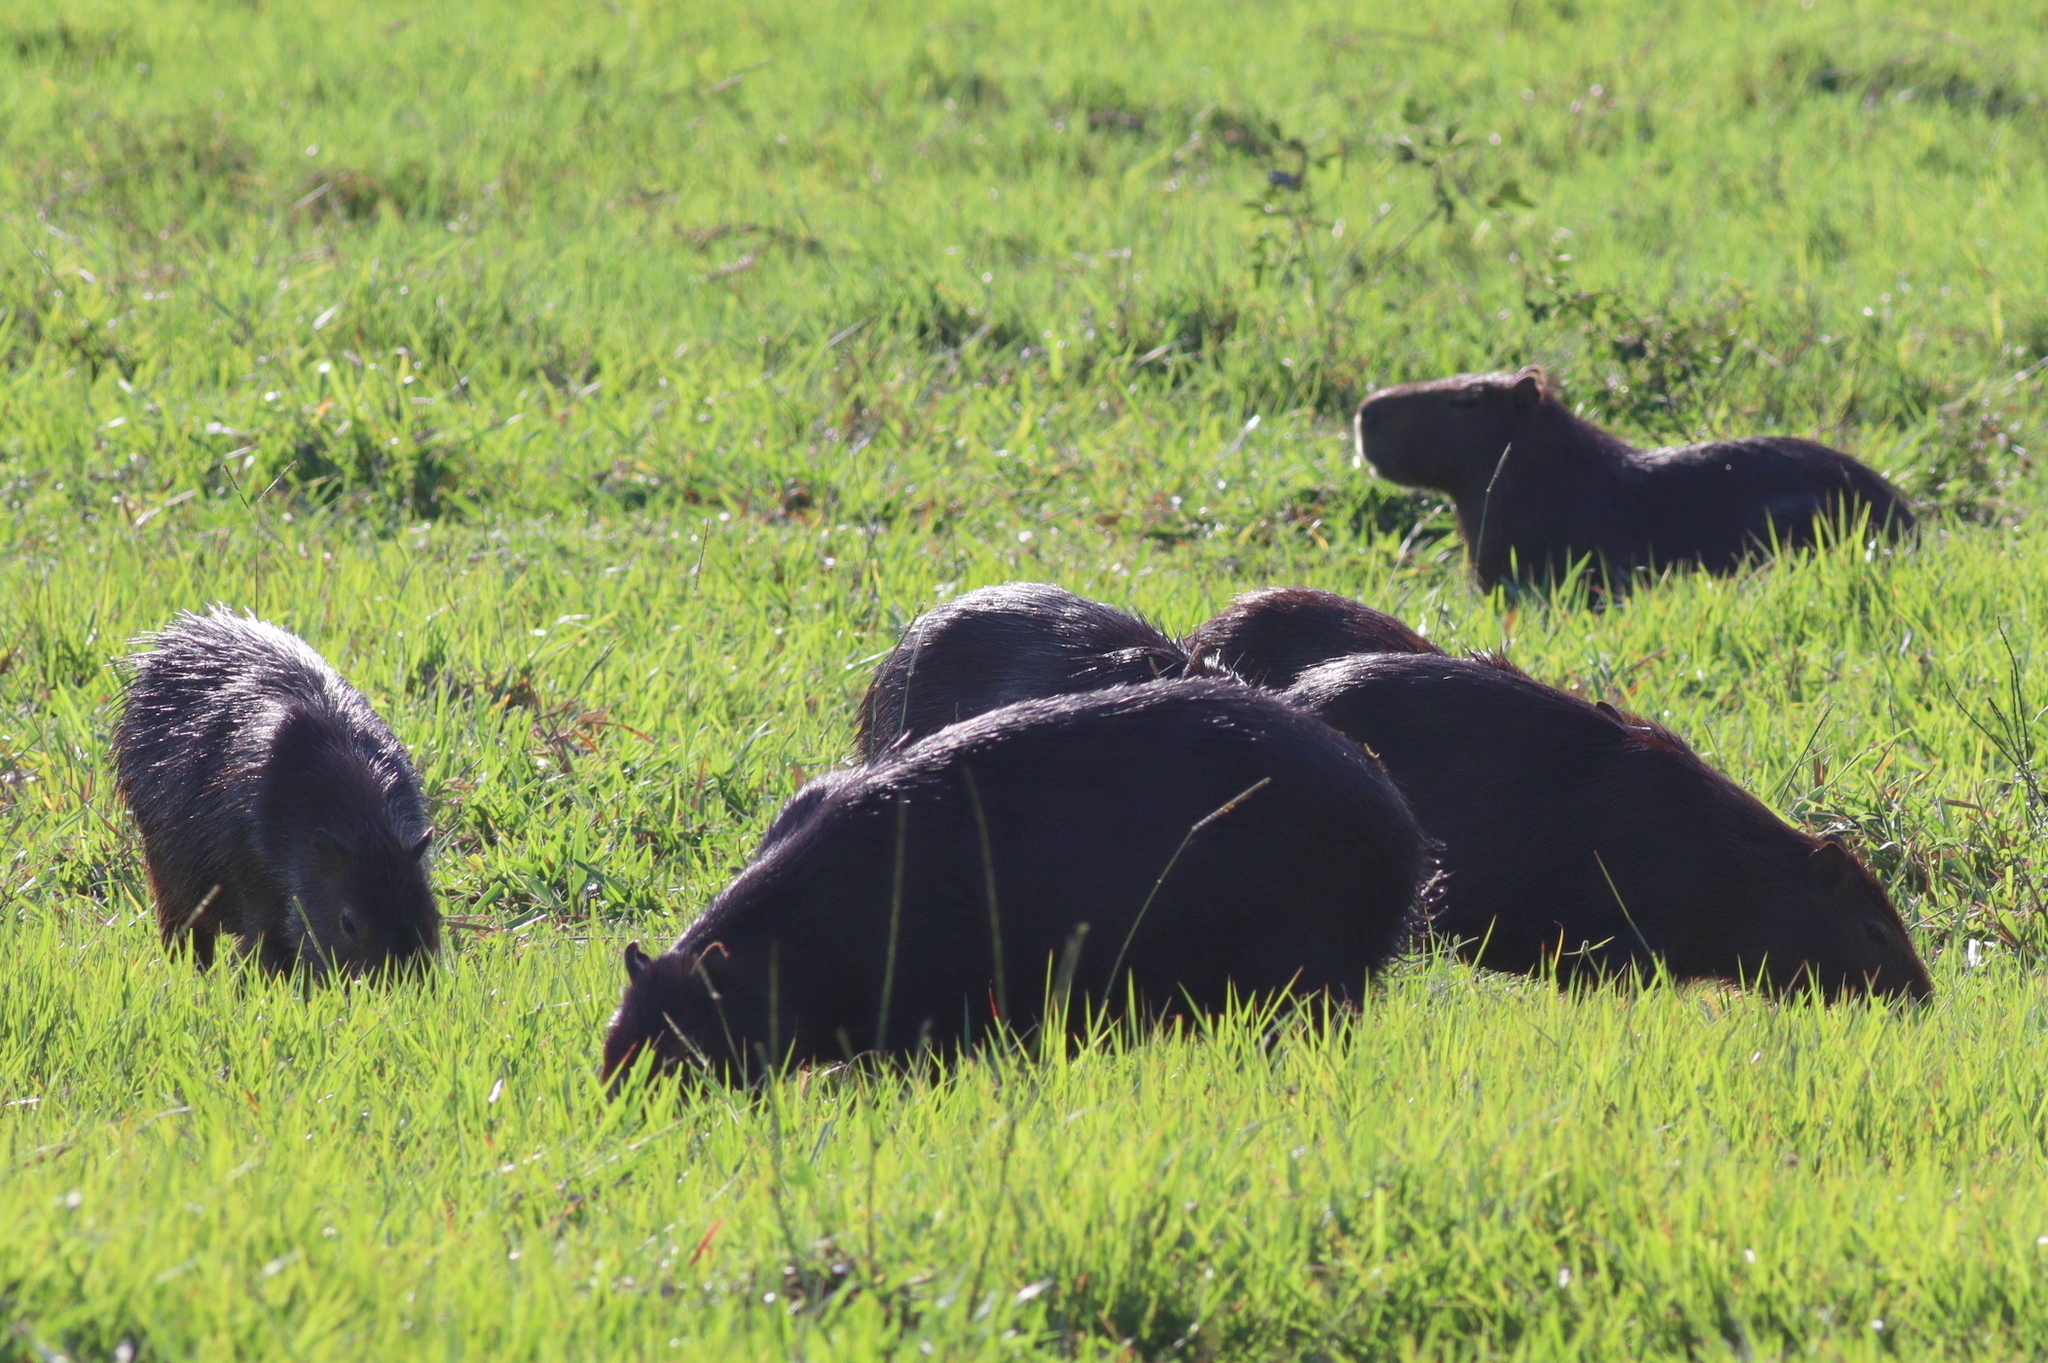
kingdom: Animalia
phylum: Chordata
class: Mammalia
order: Rodentia
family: Caviidae
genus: Hydrochoerus
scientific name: Hydrochoerus hydrochaeris
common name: Capybara
